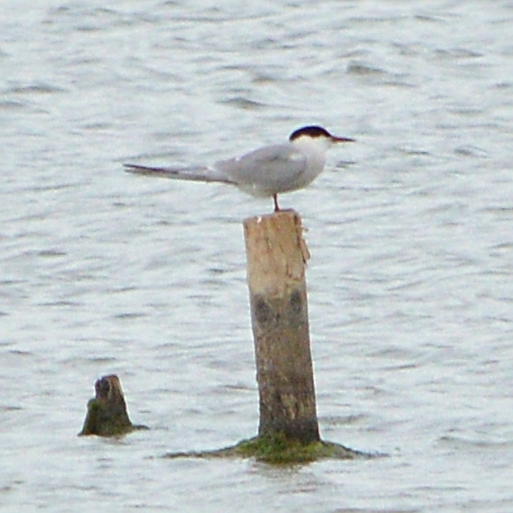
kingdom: Animalia
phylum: Chordata
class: Aves
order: Charadriiformes
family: Laridae
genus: Sterna
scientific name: Sterna hirundo
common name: Common tern
